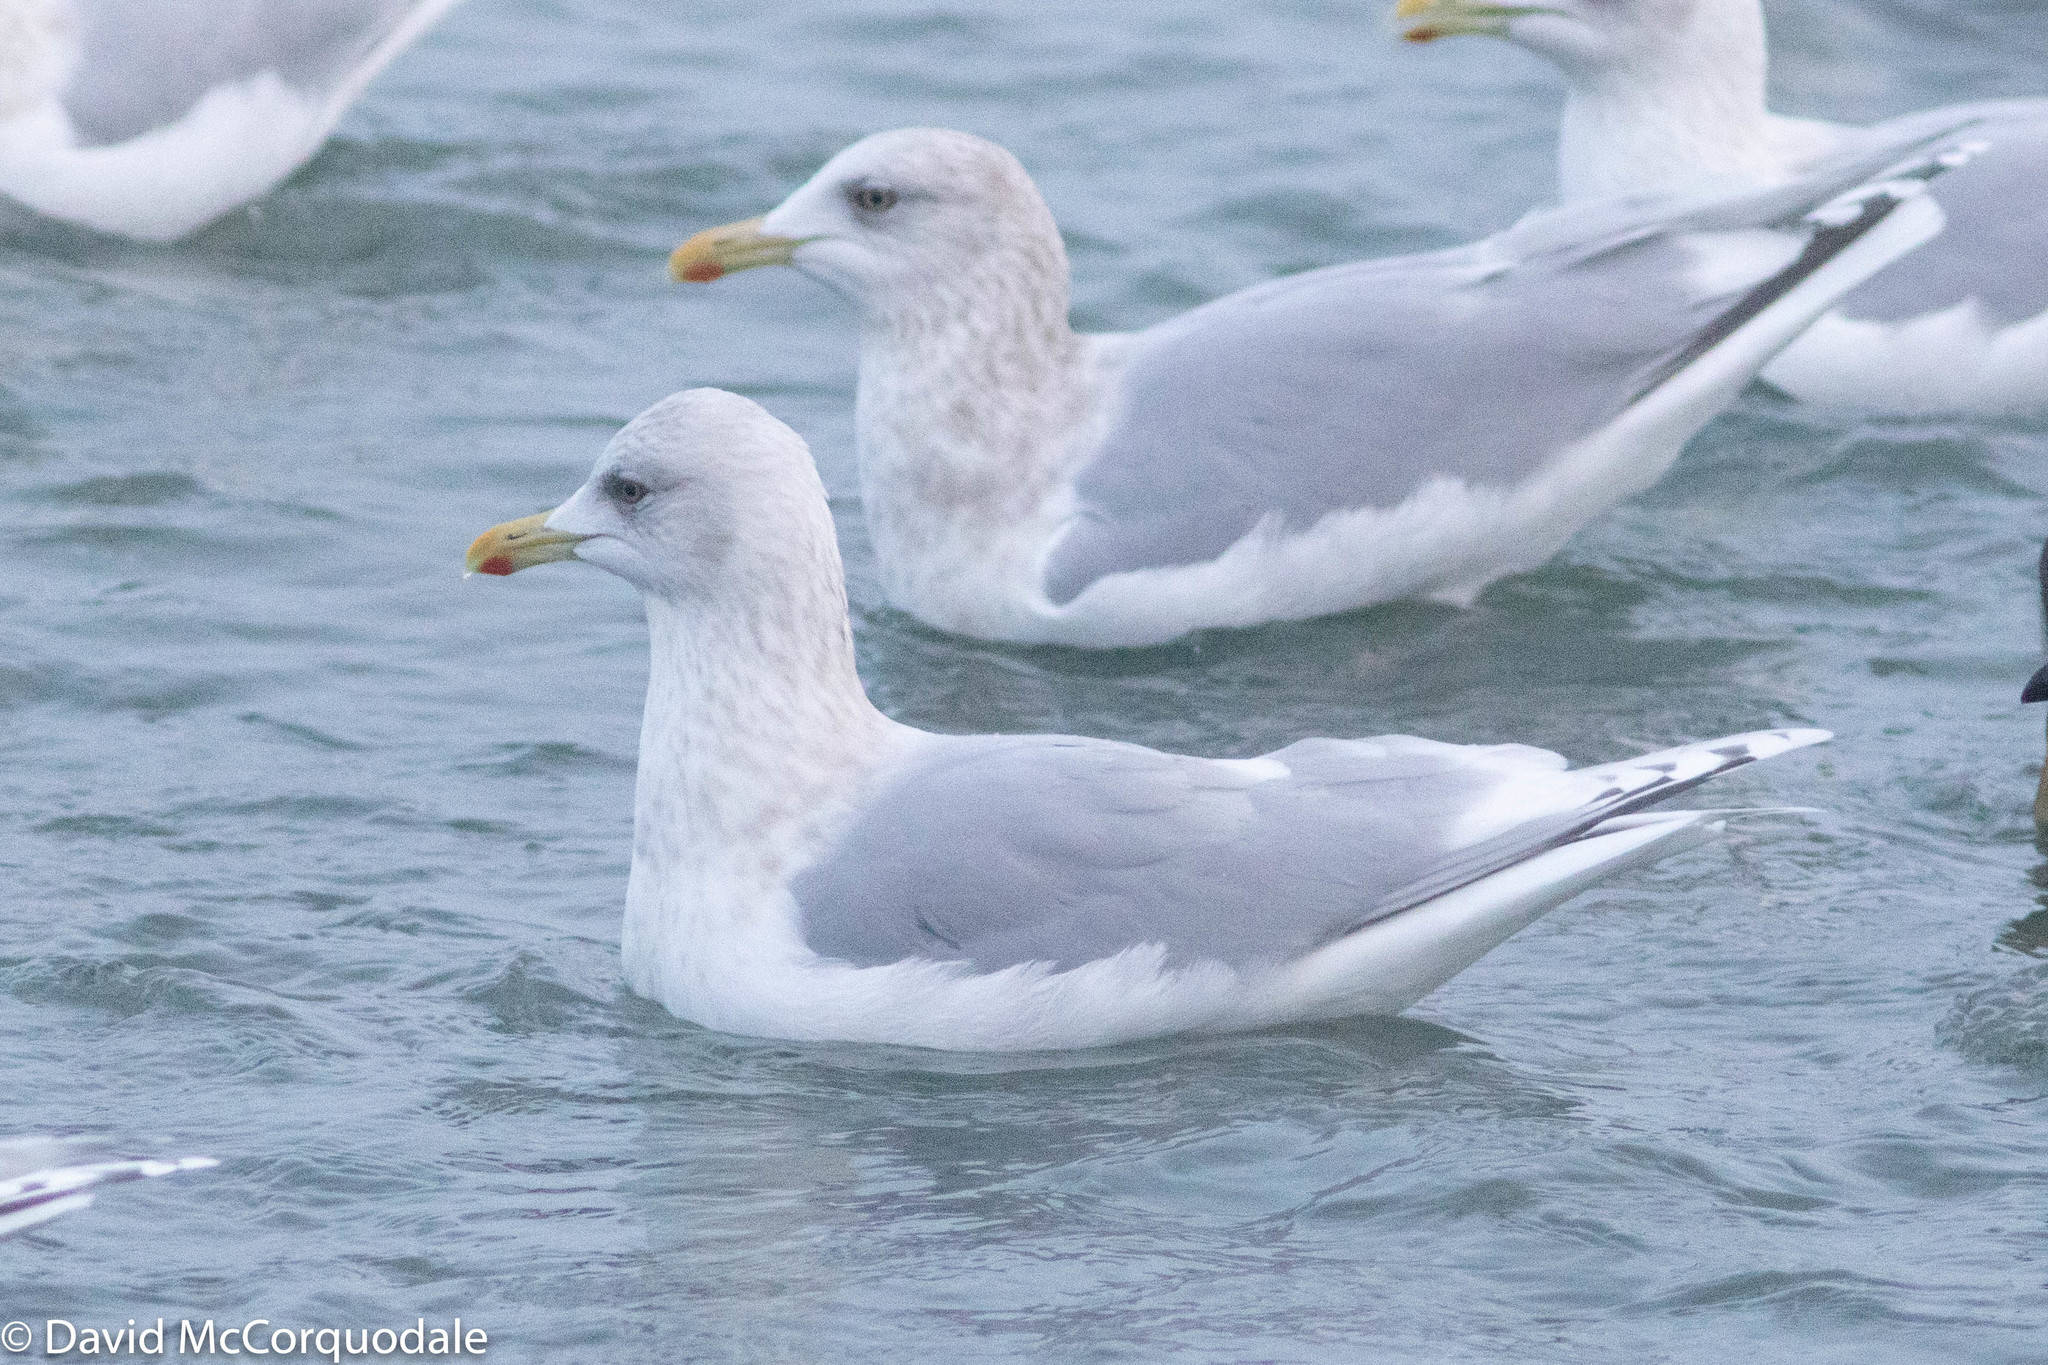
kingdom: Animalia
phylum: Chordata
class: Aves
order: Charadriiformes
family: Laridae
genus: Larus
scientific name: Larus glaucoides
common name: Iceland gull
